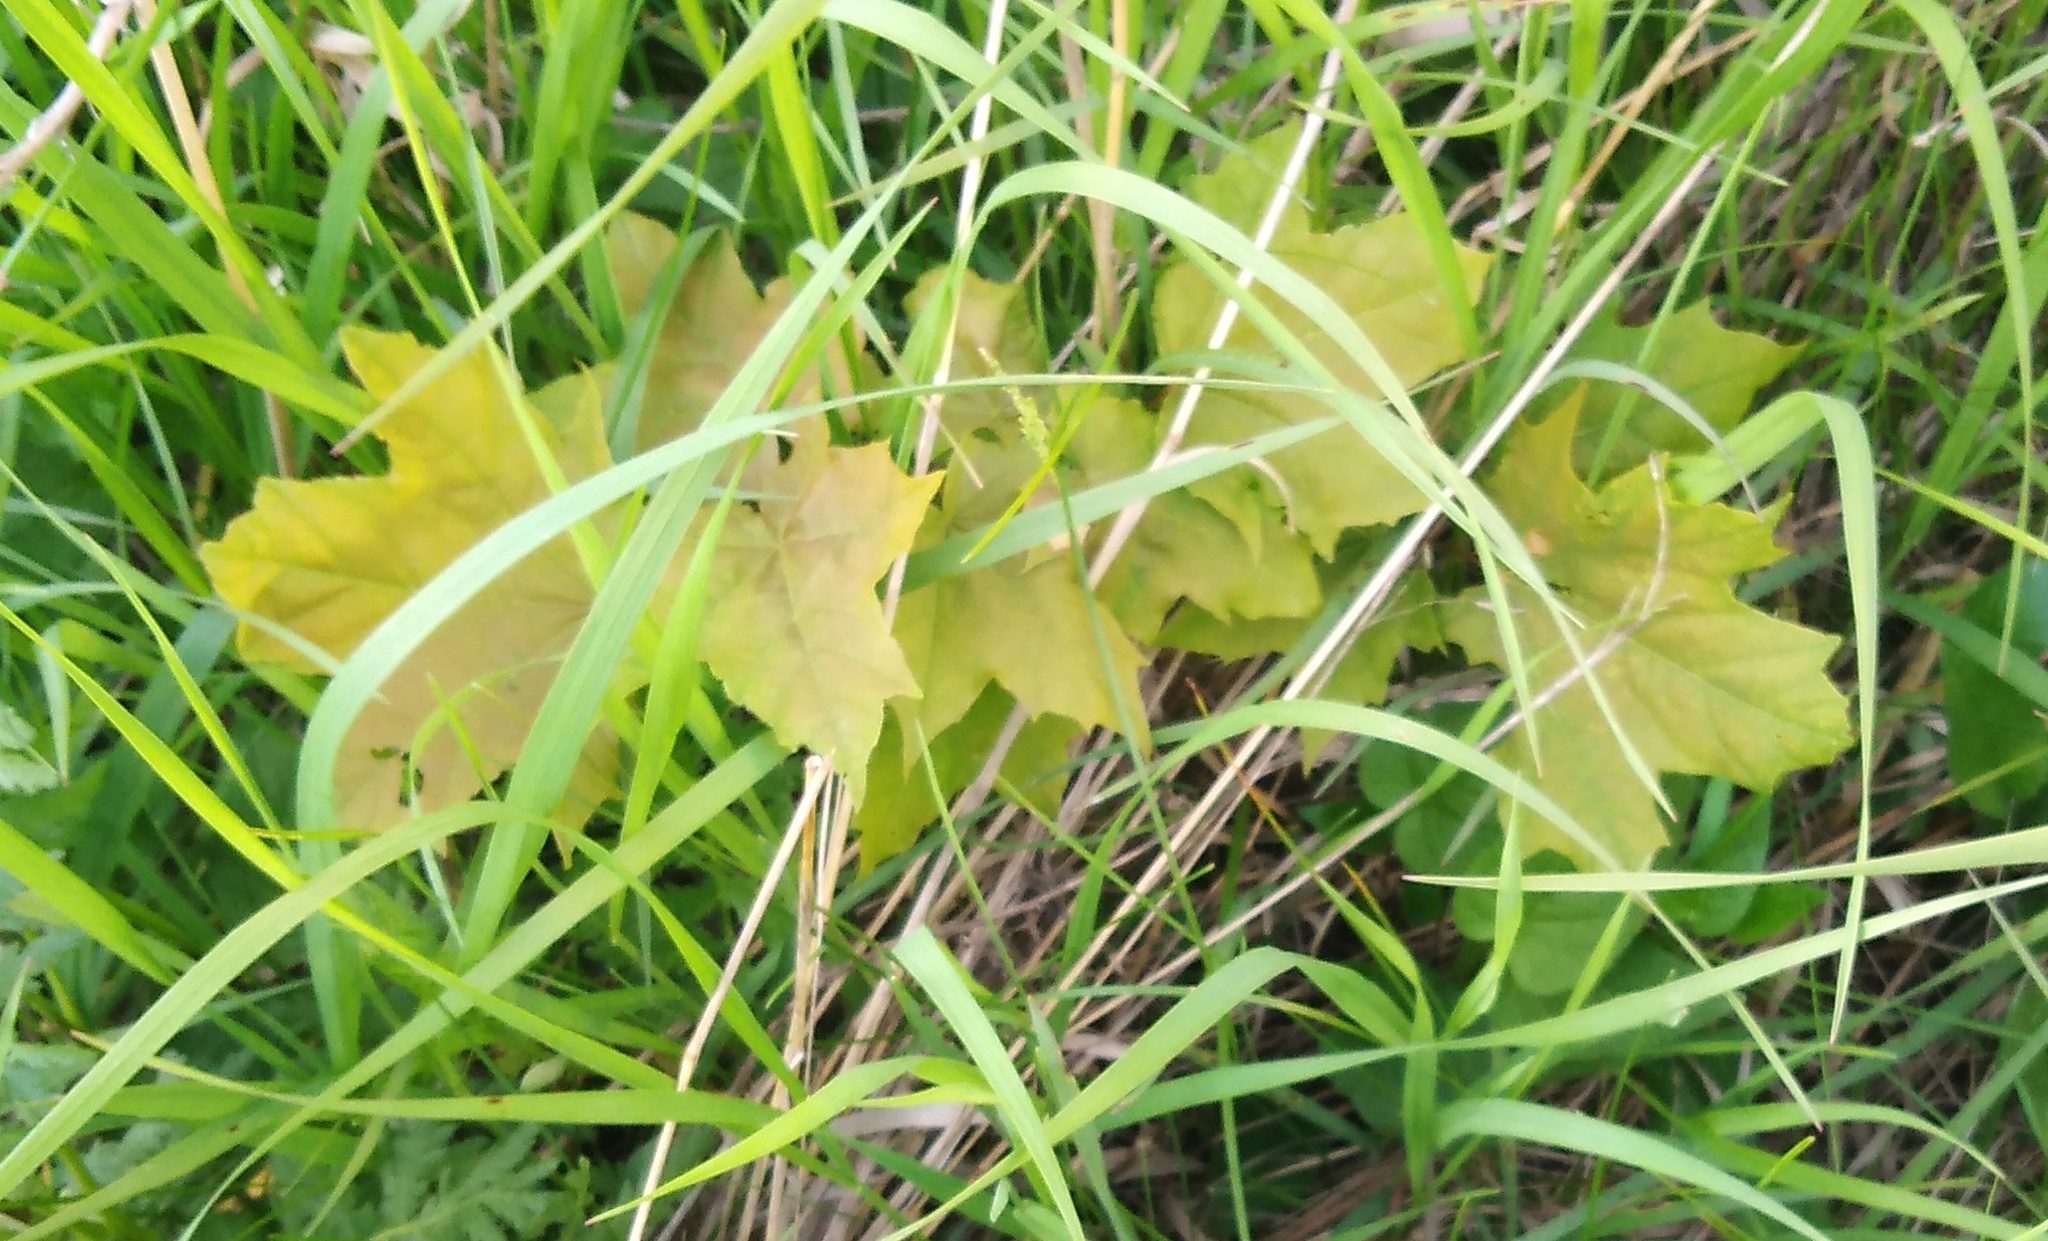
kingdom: Plantae
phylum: Tracheophyta
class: Magnoliopsida
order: Sapindales
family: Sapindaceae
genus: Acer
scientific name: Acer platanoides
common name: Norway maple
